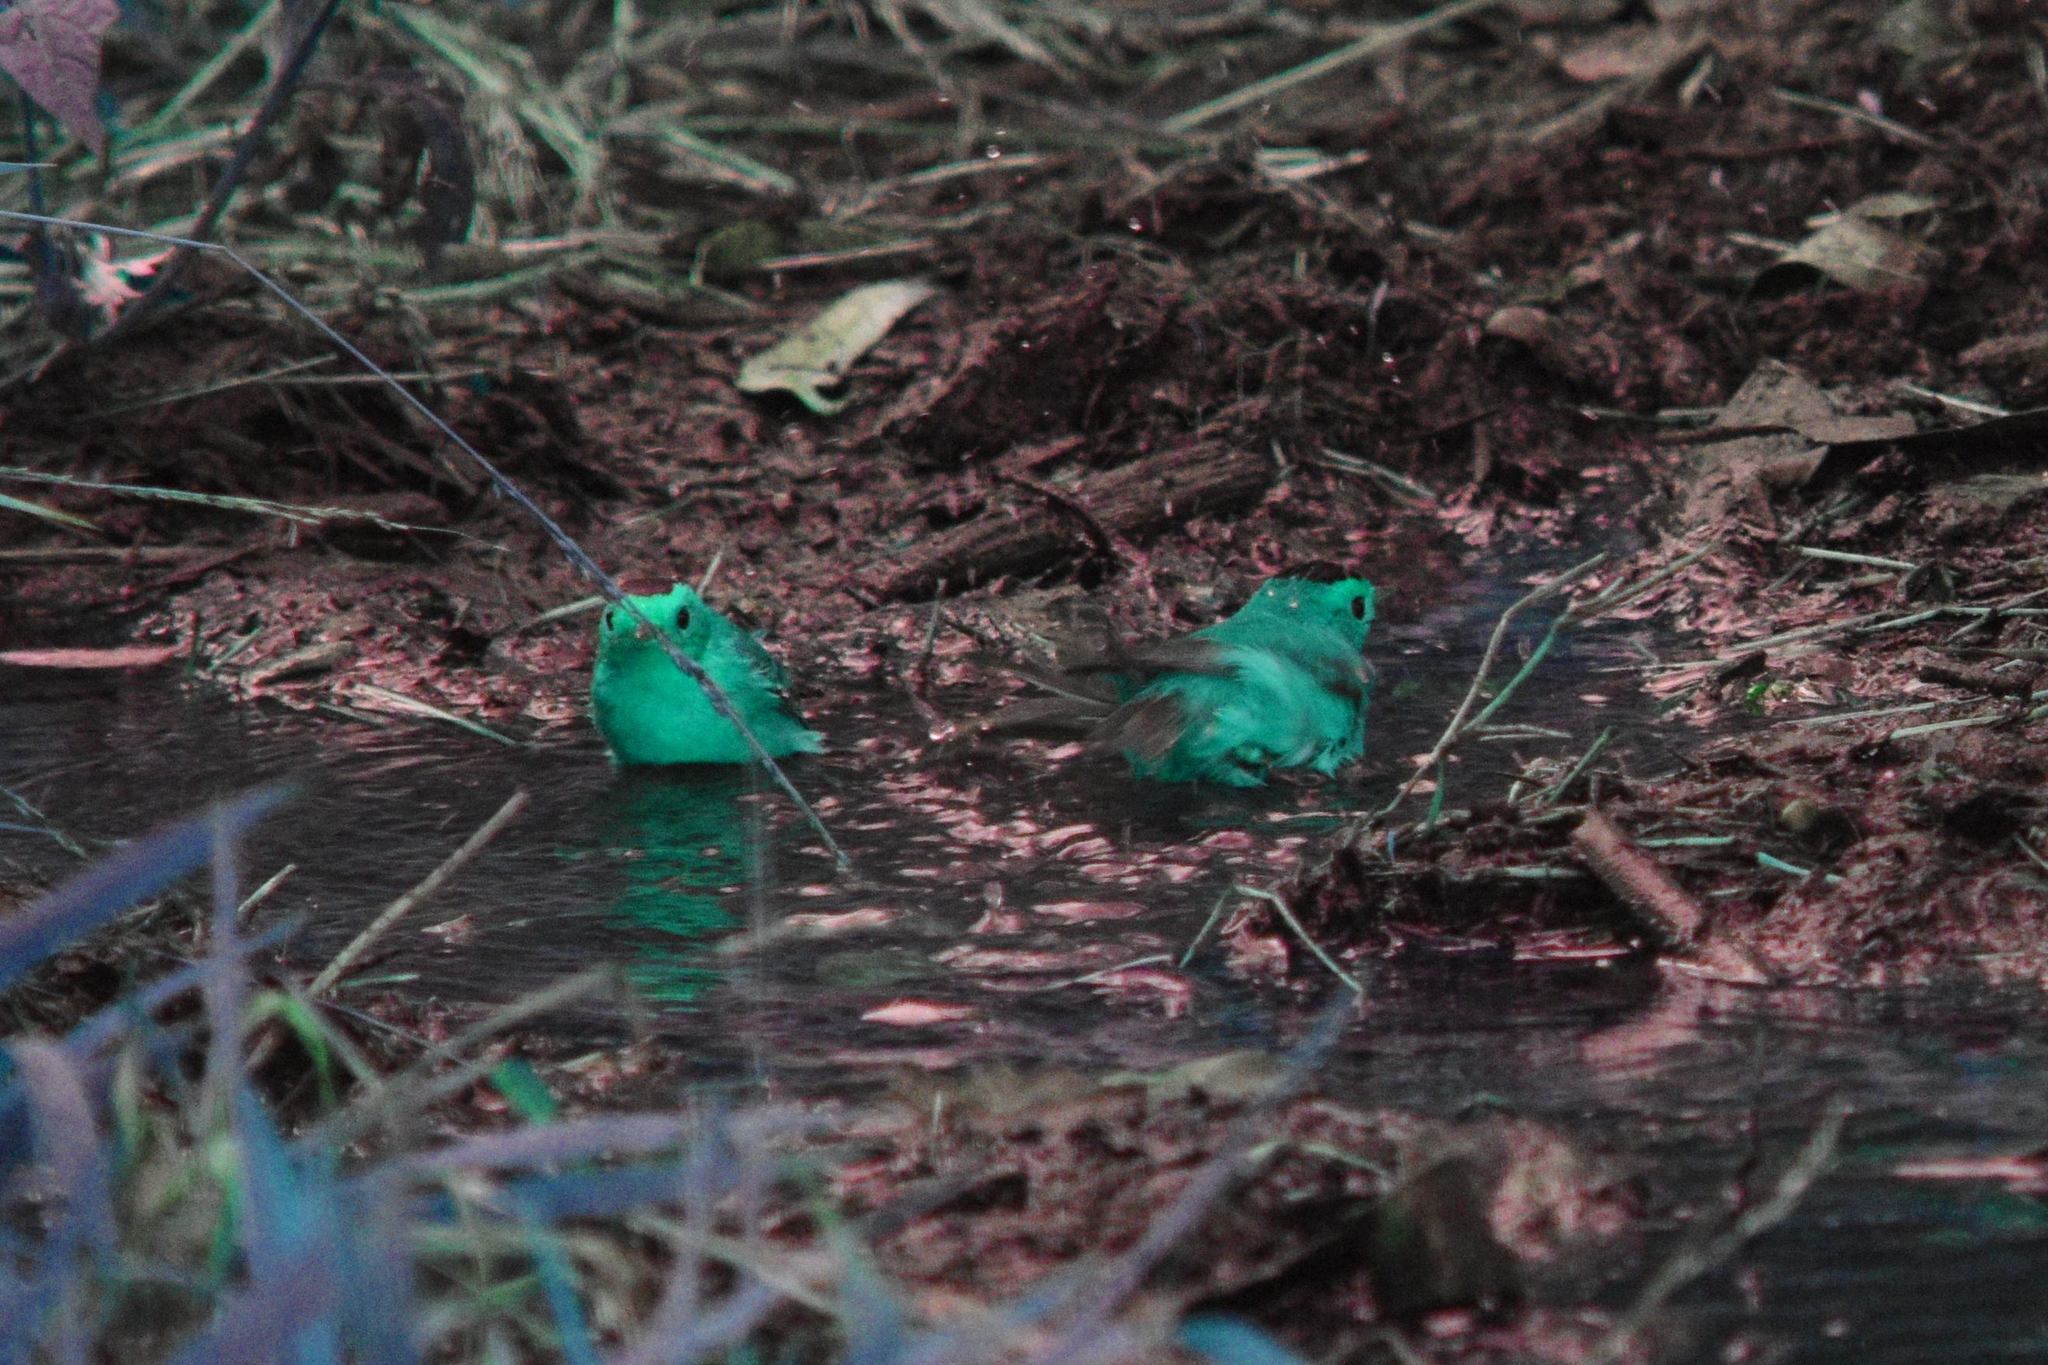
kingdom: Animalia
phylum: Chordata
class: Aves
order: Passeriformes
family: Parulidae
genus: Cardellina
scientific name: Cardellina pusilla
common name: Wilson's warbler
